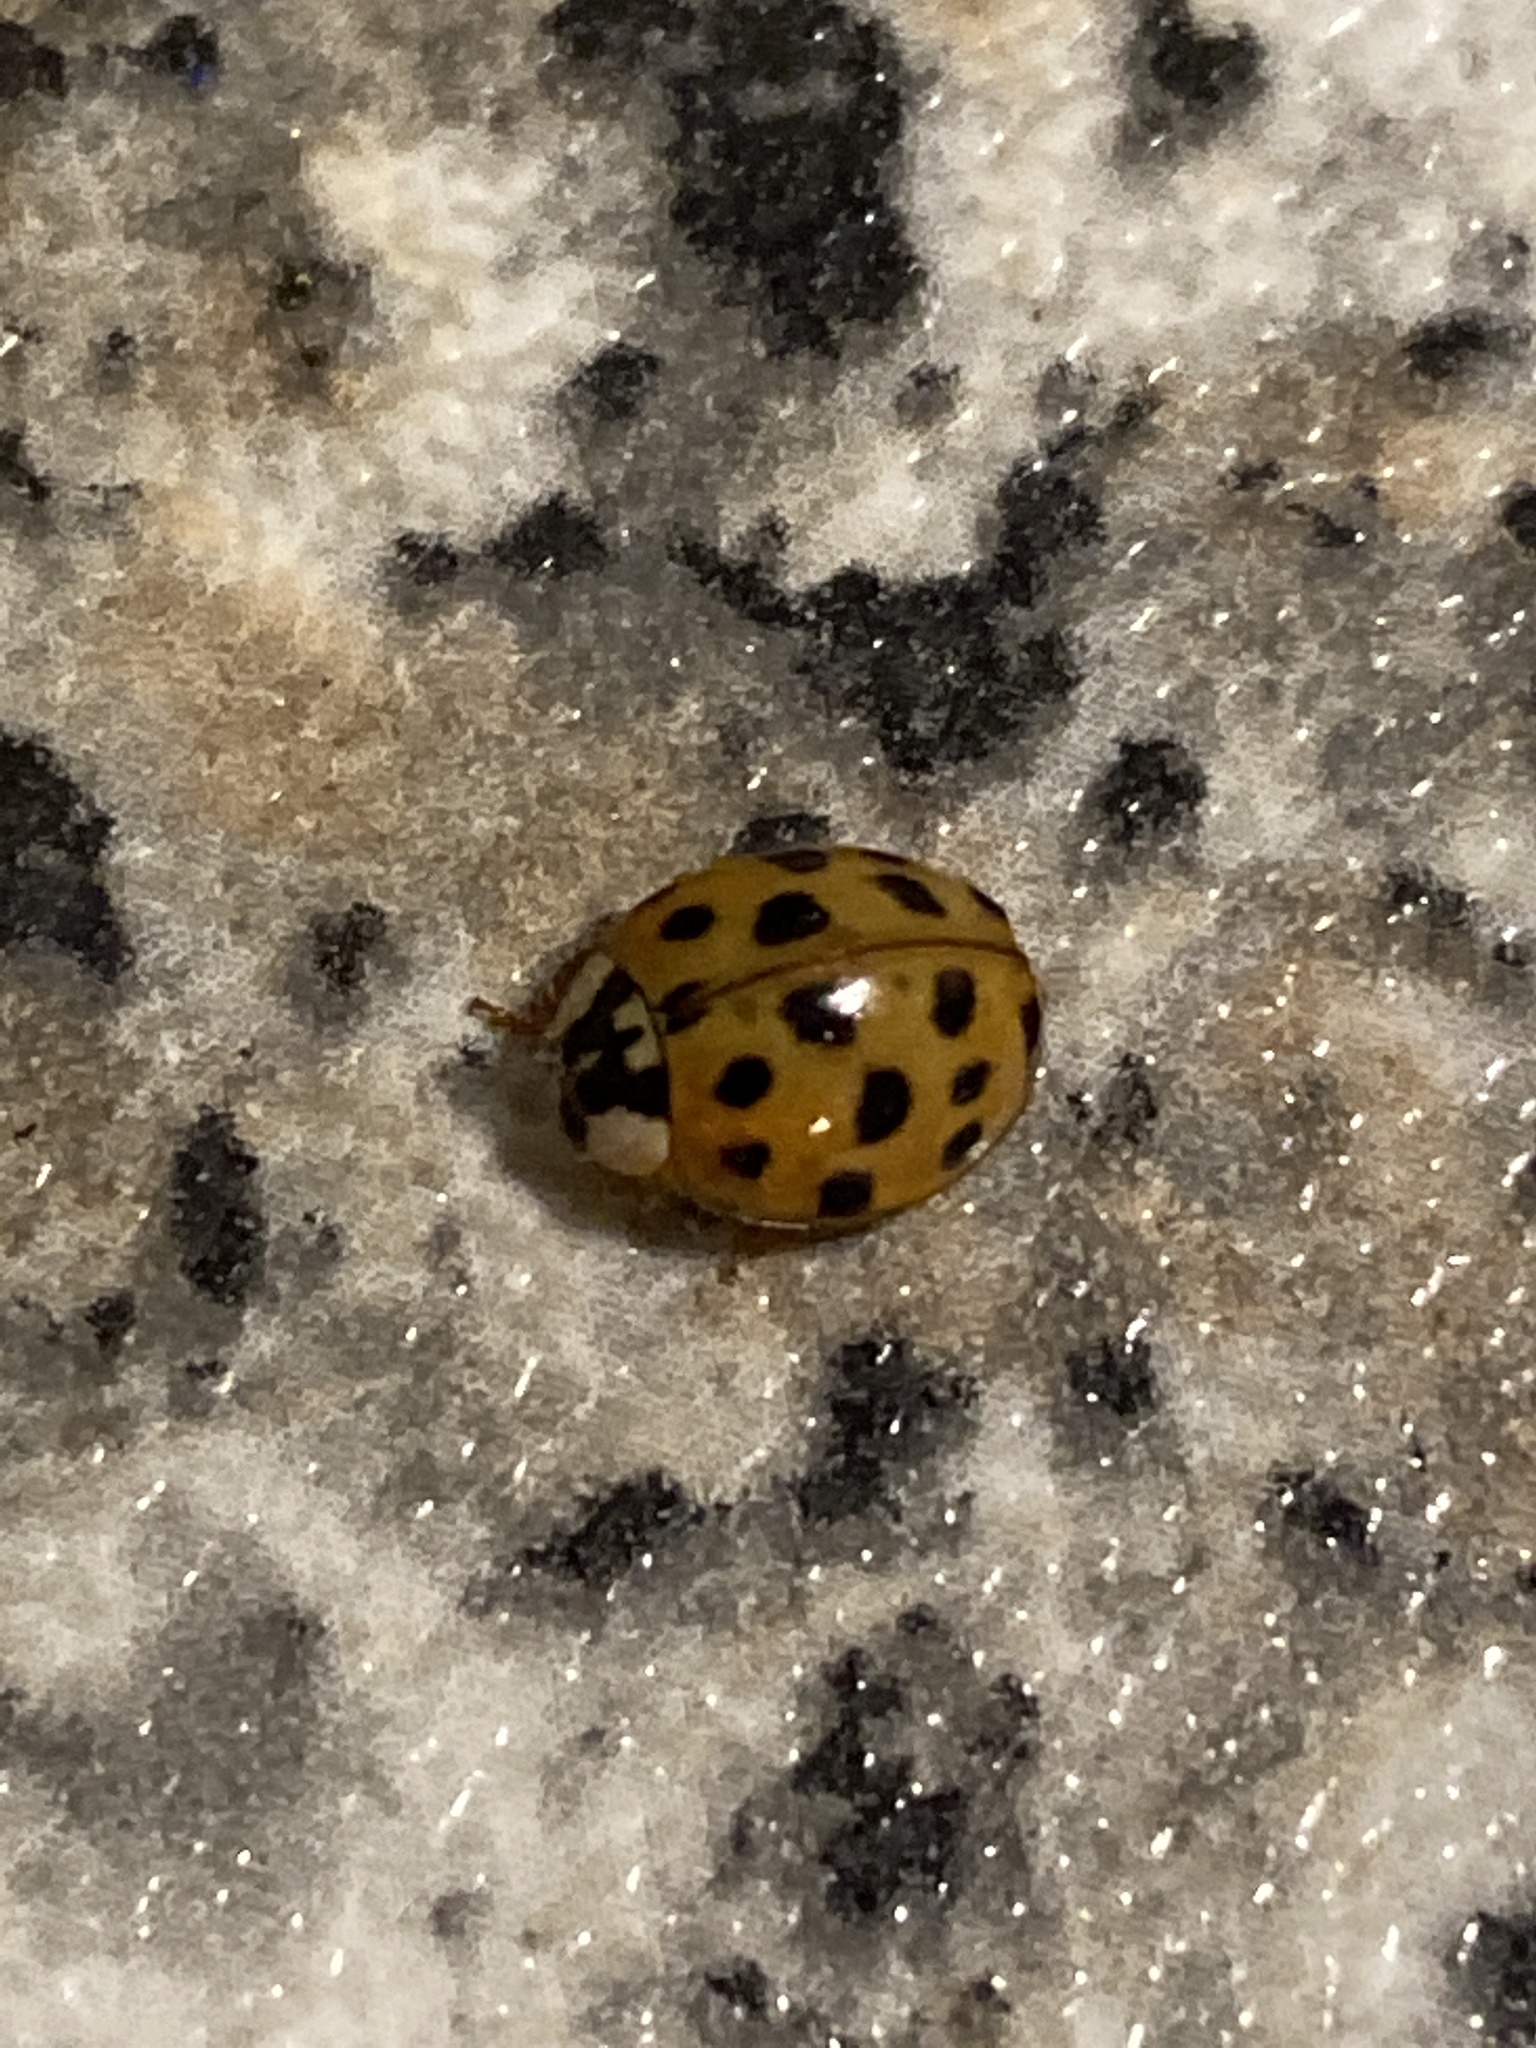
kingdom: Animalia
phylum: Arthropoda
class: Insecta
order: Coleoptera
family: Coccinellidae
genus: Harmonia
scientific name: Harmonia axyridis
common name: Harlequin ladybird
